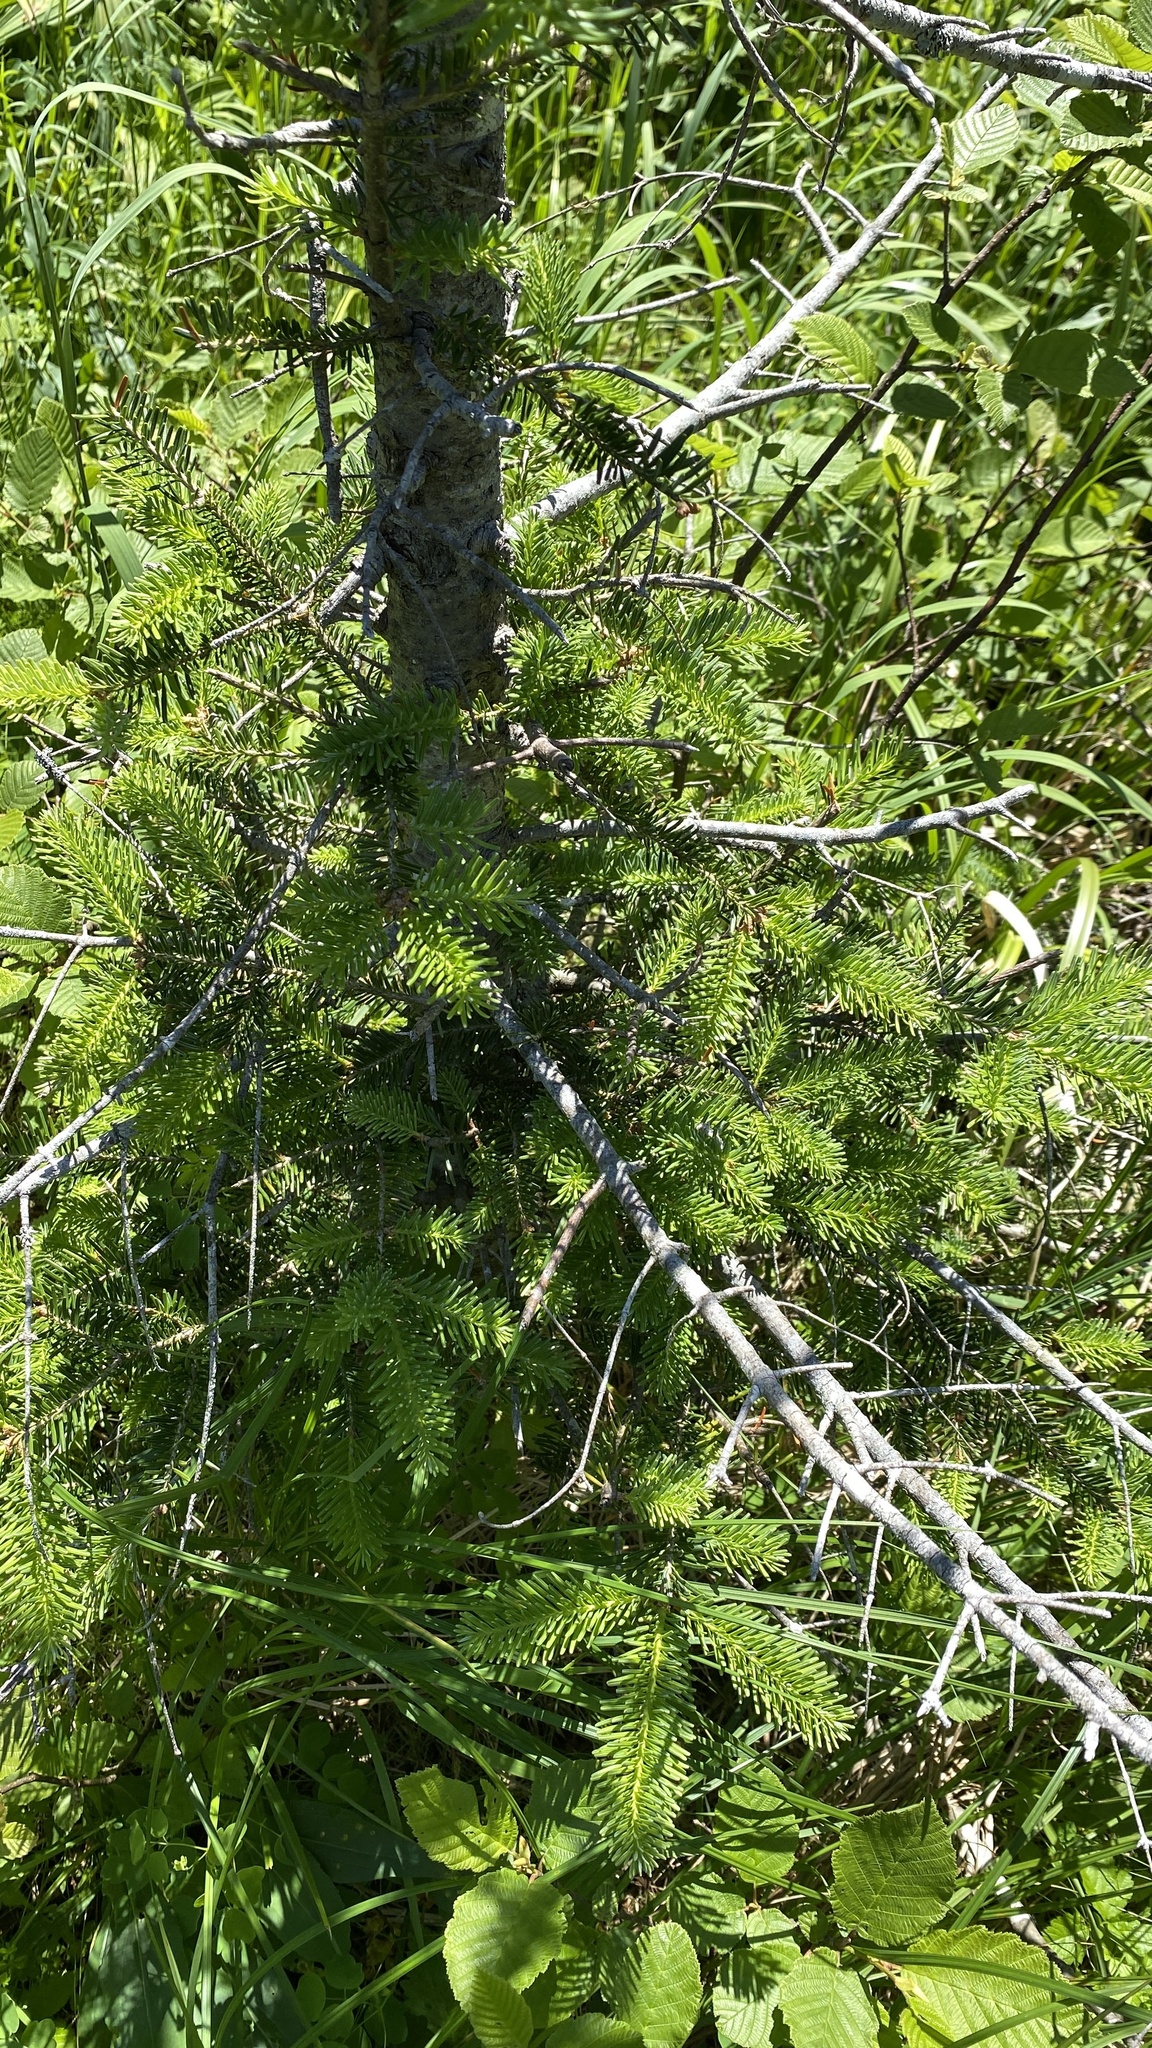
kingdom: Plantae
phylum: Tracheophyta
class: Pinopsida
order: Pinales
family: Pinaceae
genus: Abies
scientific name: Abies balsamea
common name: Balsam fir
